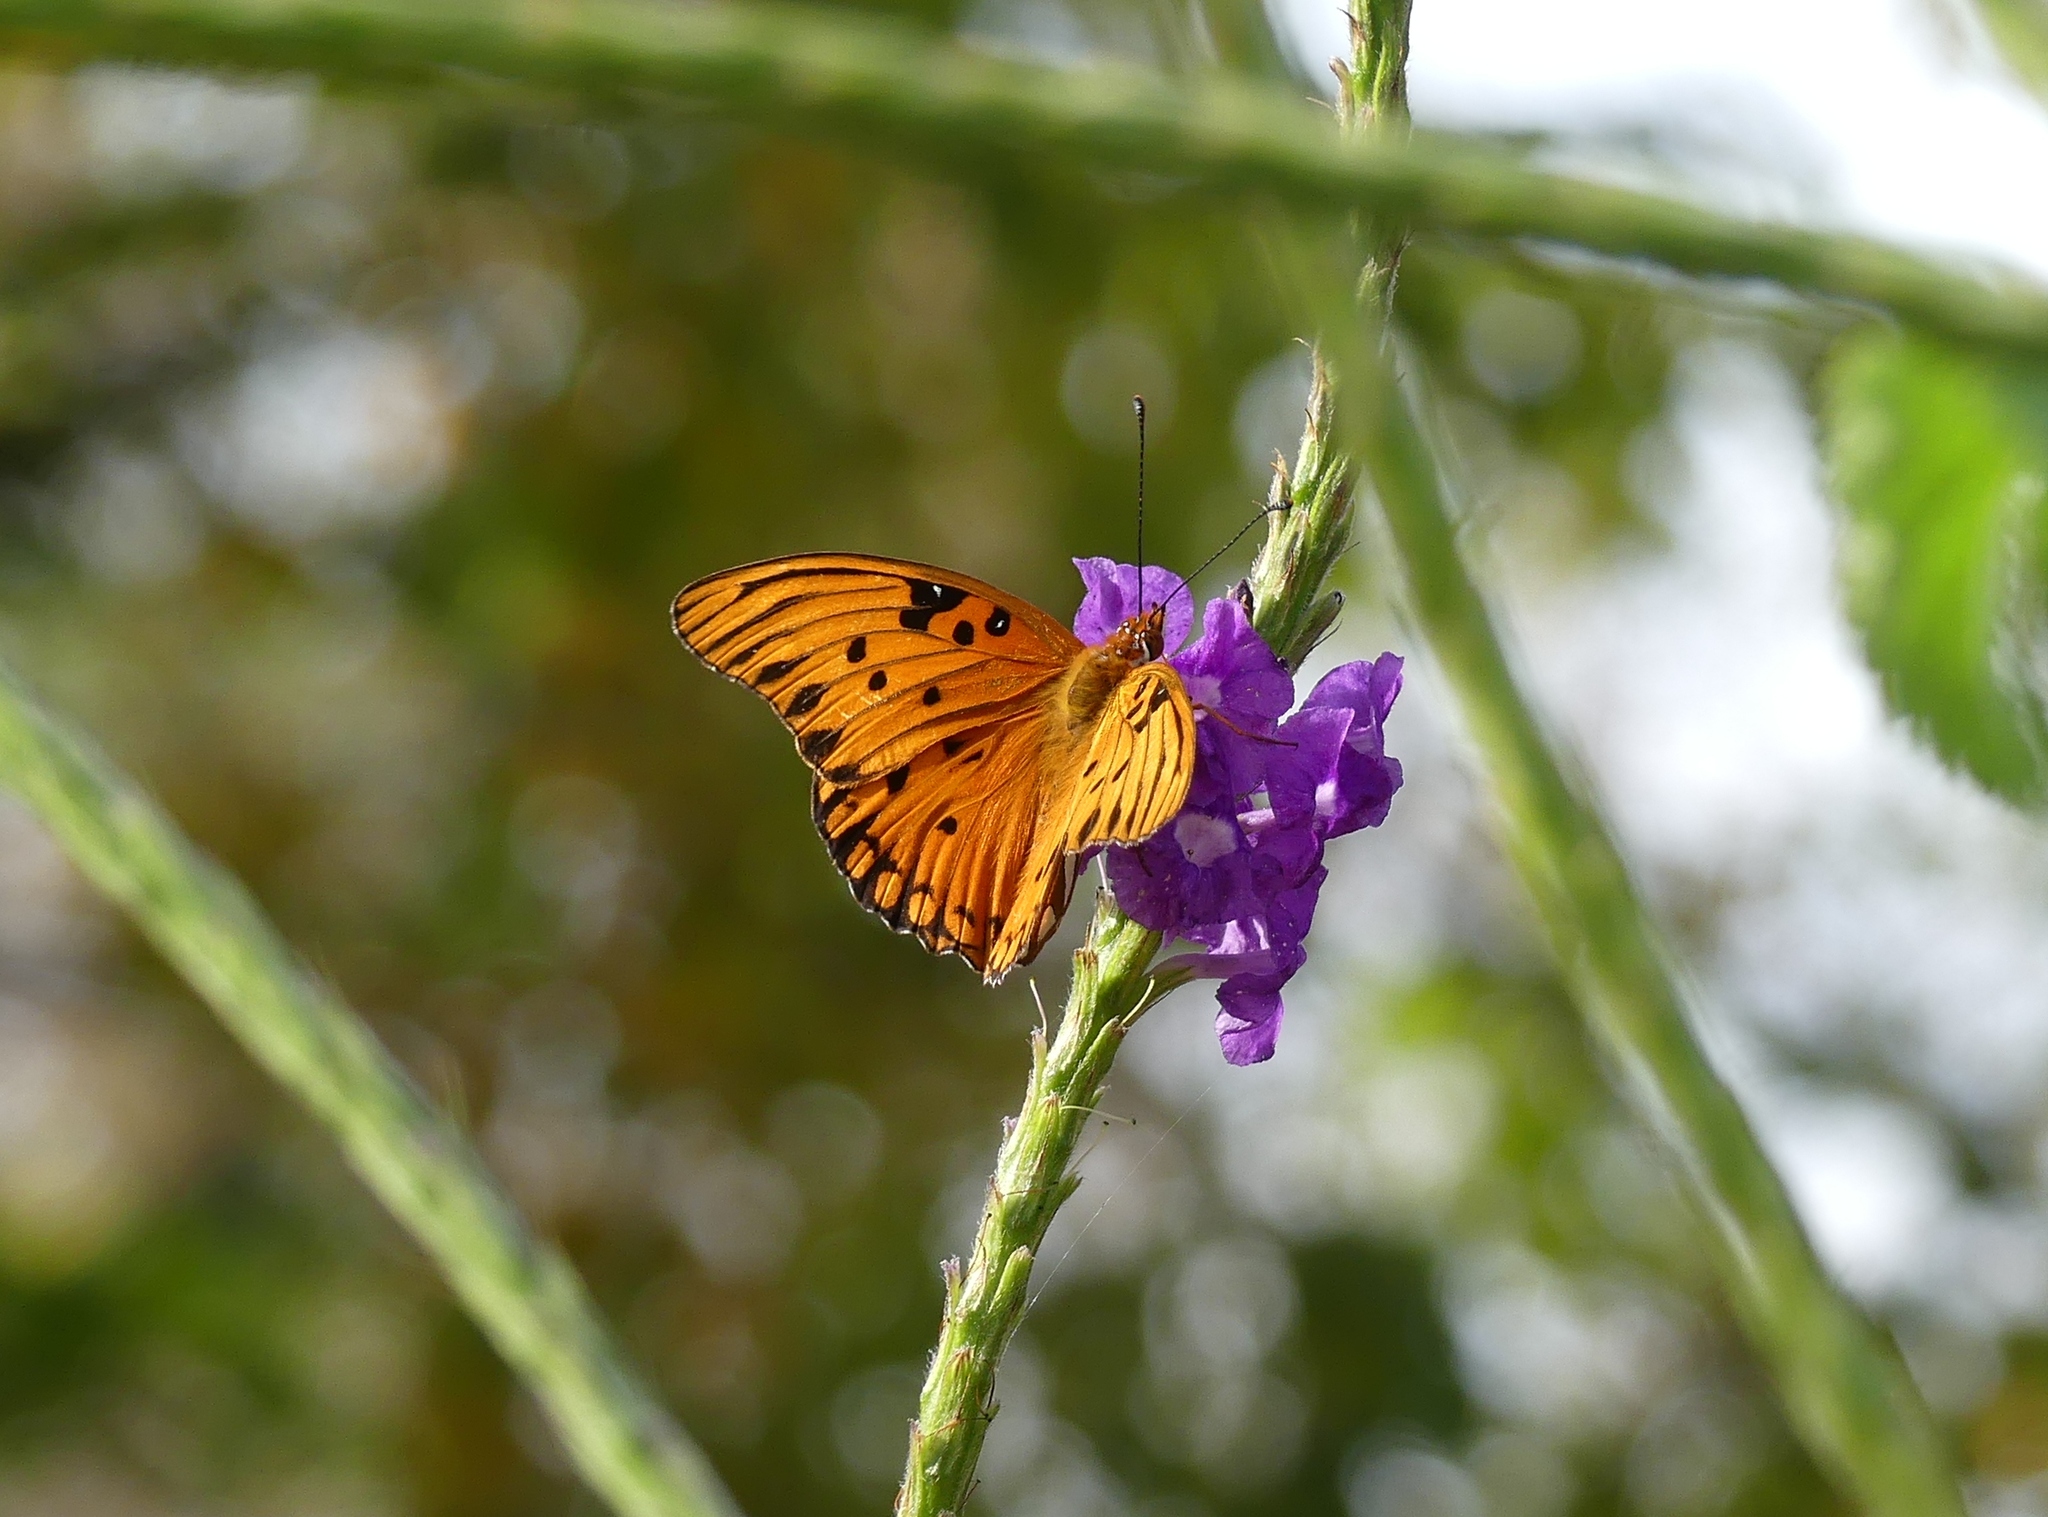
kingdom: Animalia
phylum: Arthropoda
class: Insecta
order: Lepidoptera
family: Nymphalidae
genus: Dione
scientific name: Dione vanillae
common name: Gulf fritillary
